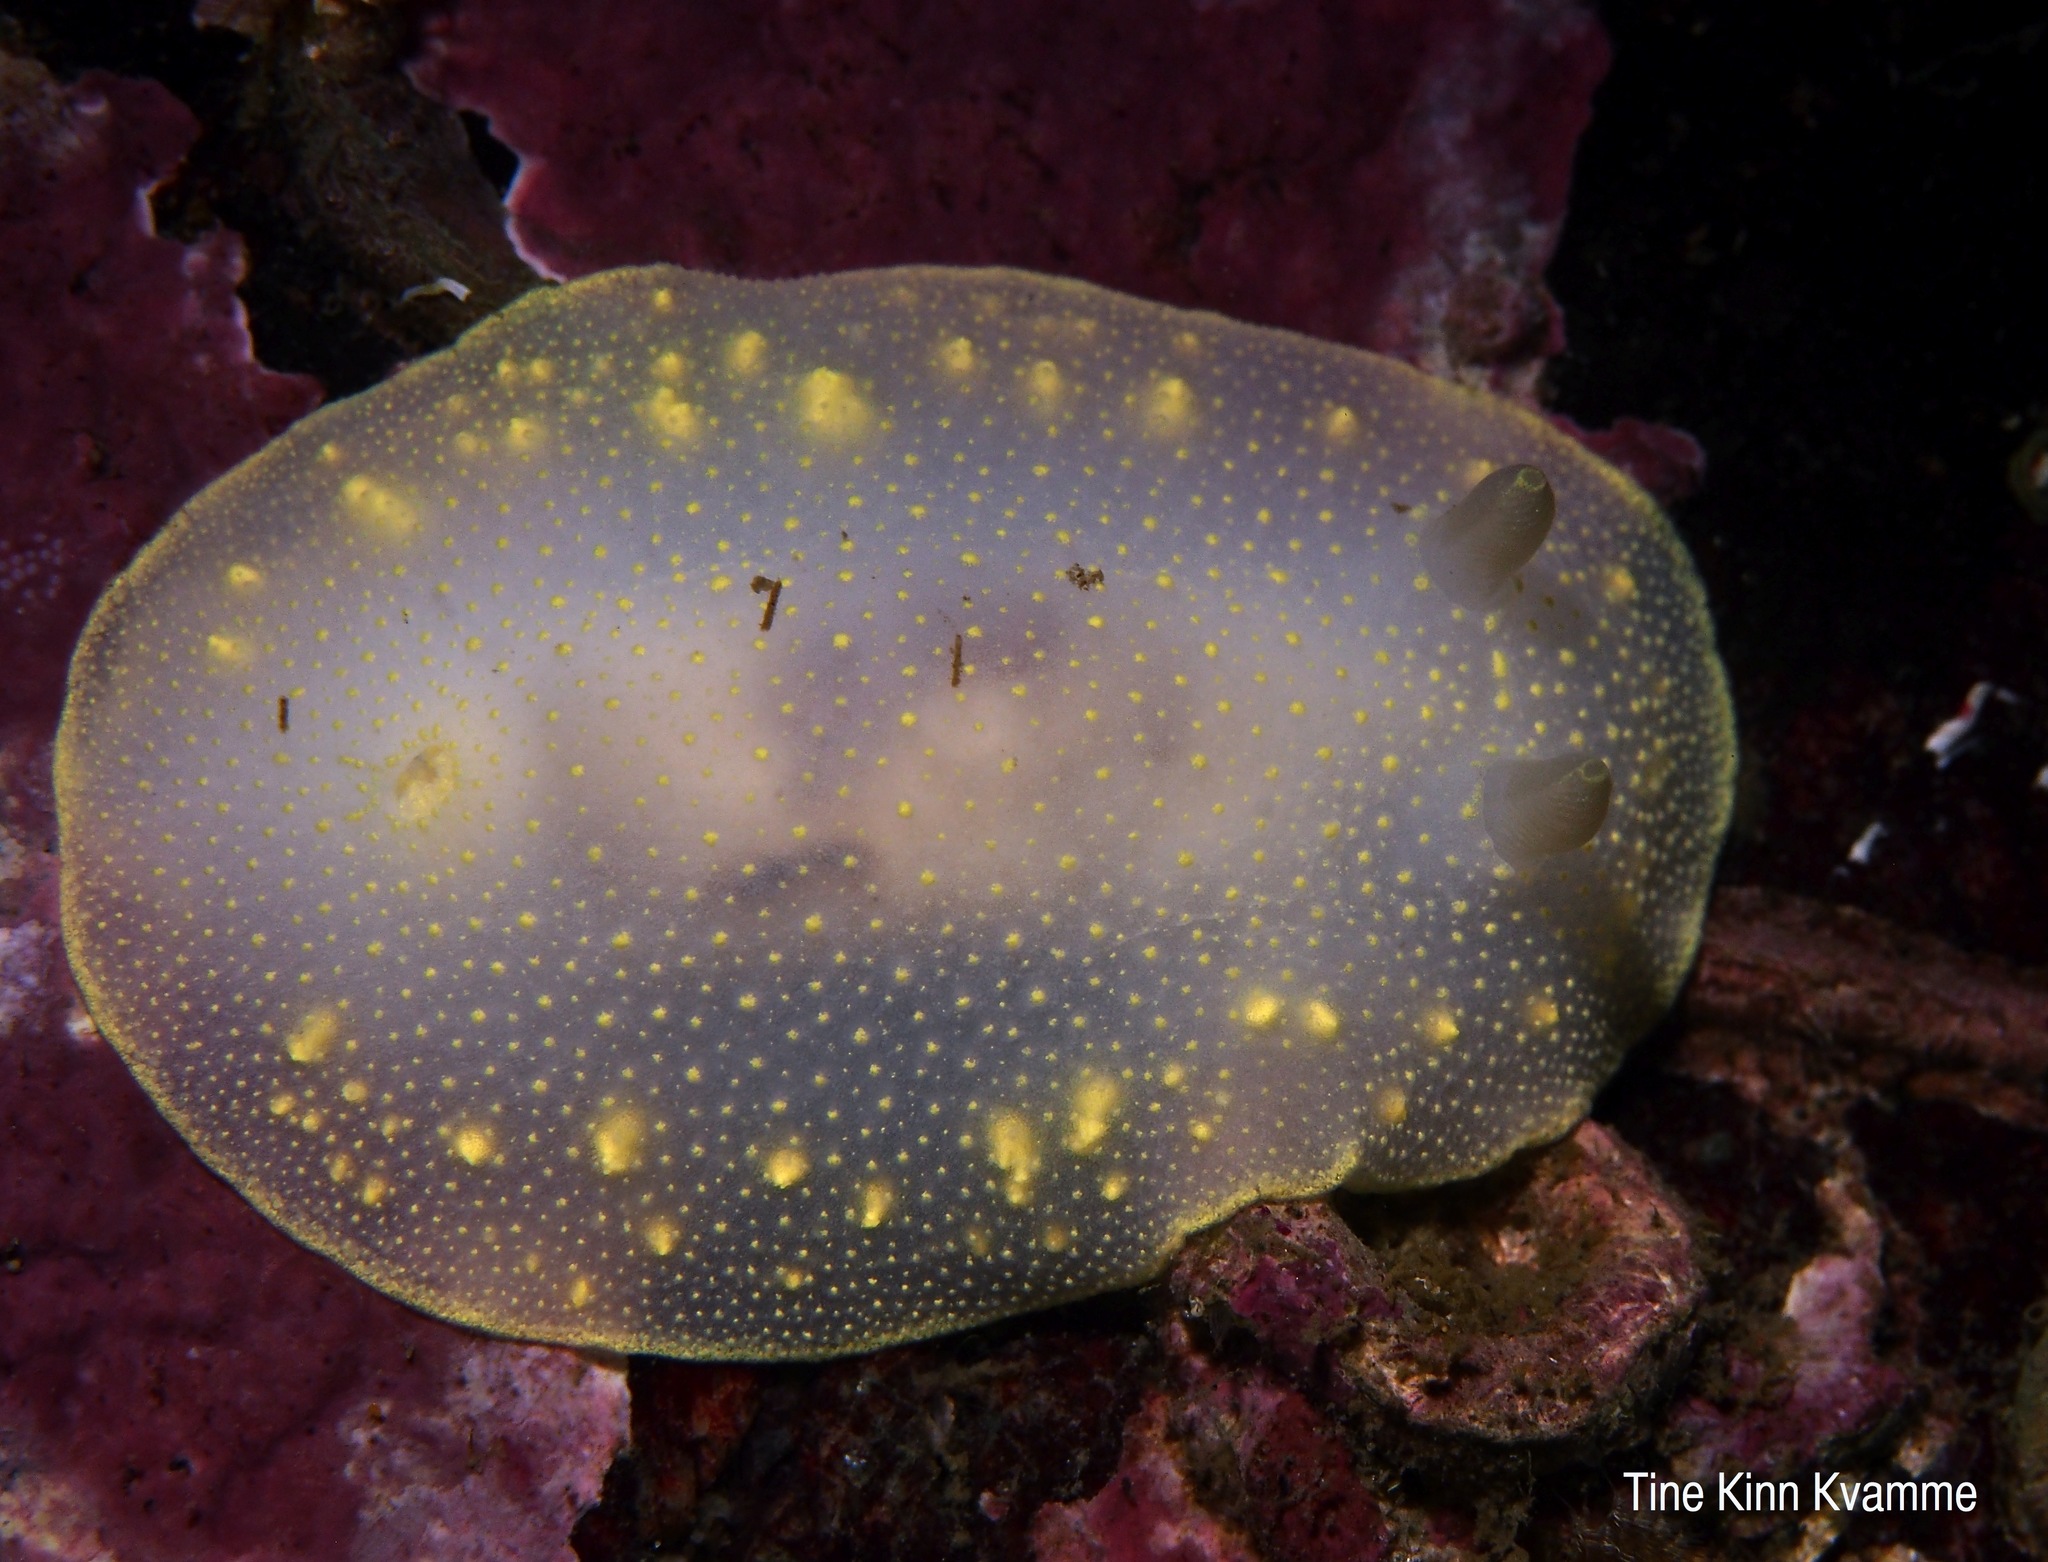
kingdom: Animalia
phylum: Mollusca
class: Gastropoda
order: Nudibranchia
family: Cadlinidae
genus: Cadlina
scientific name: Cadlina laevis
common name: White atlantic cadlina
